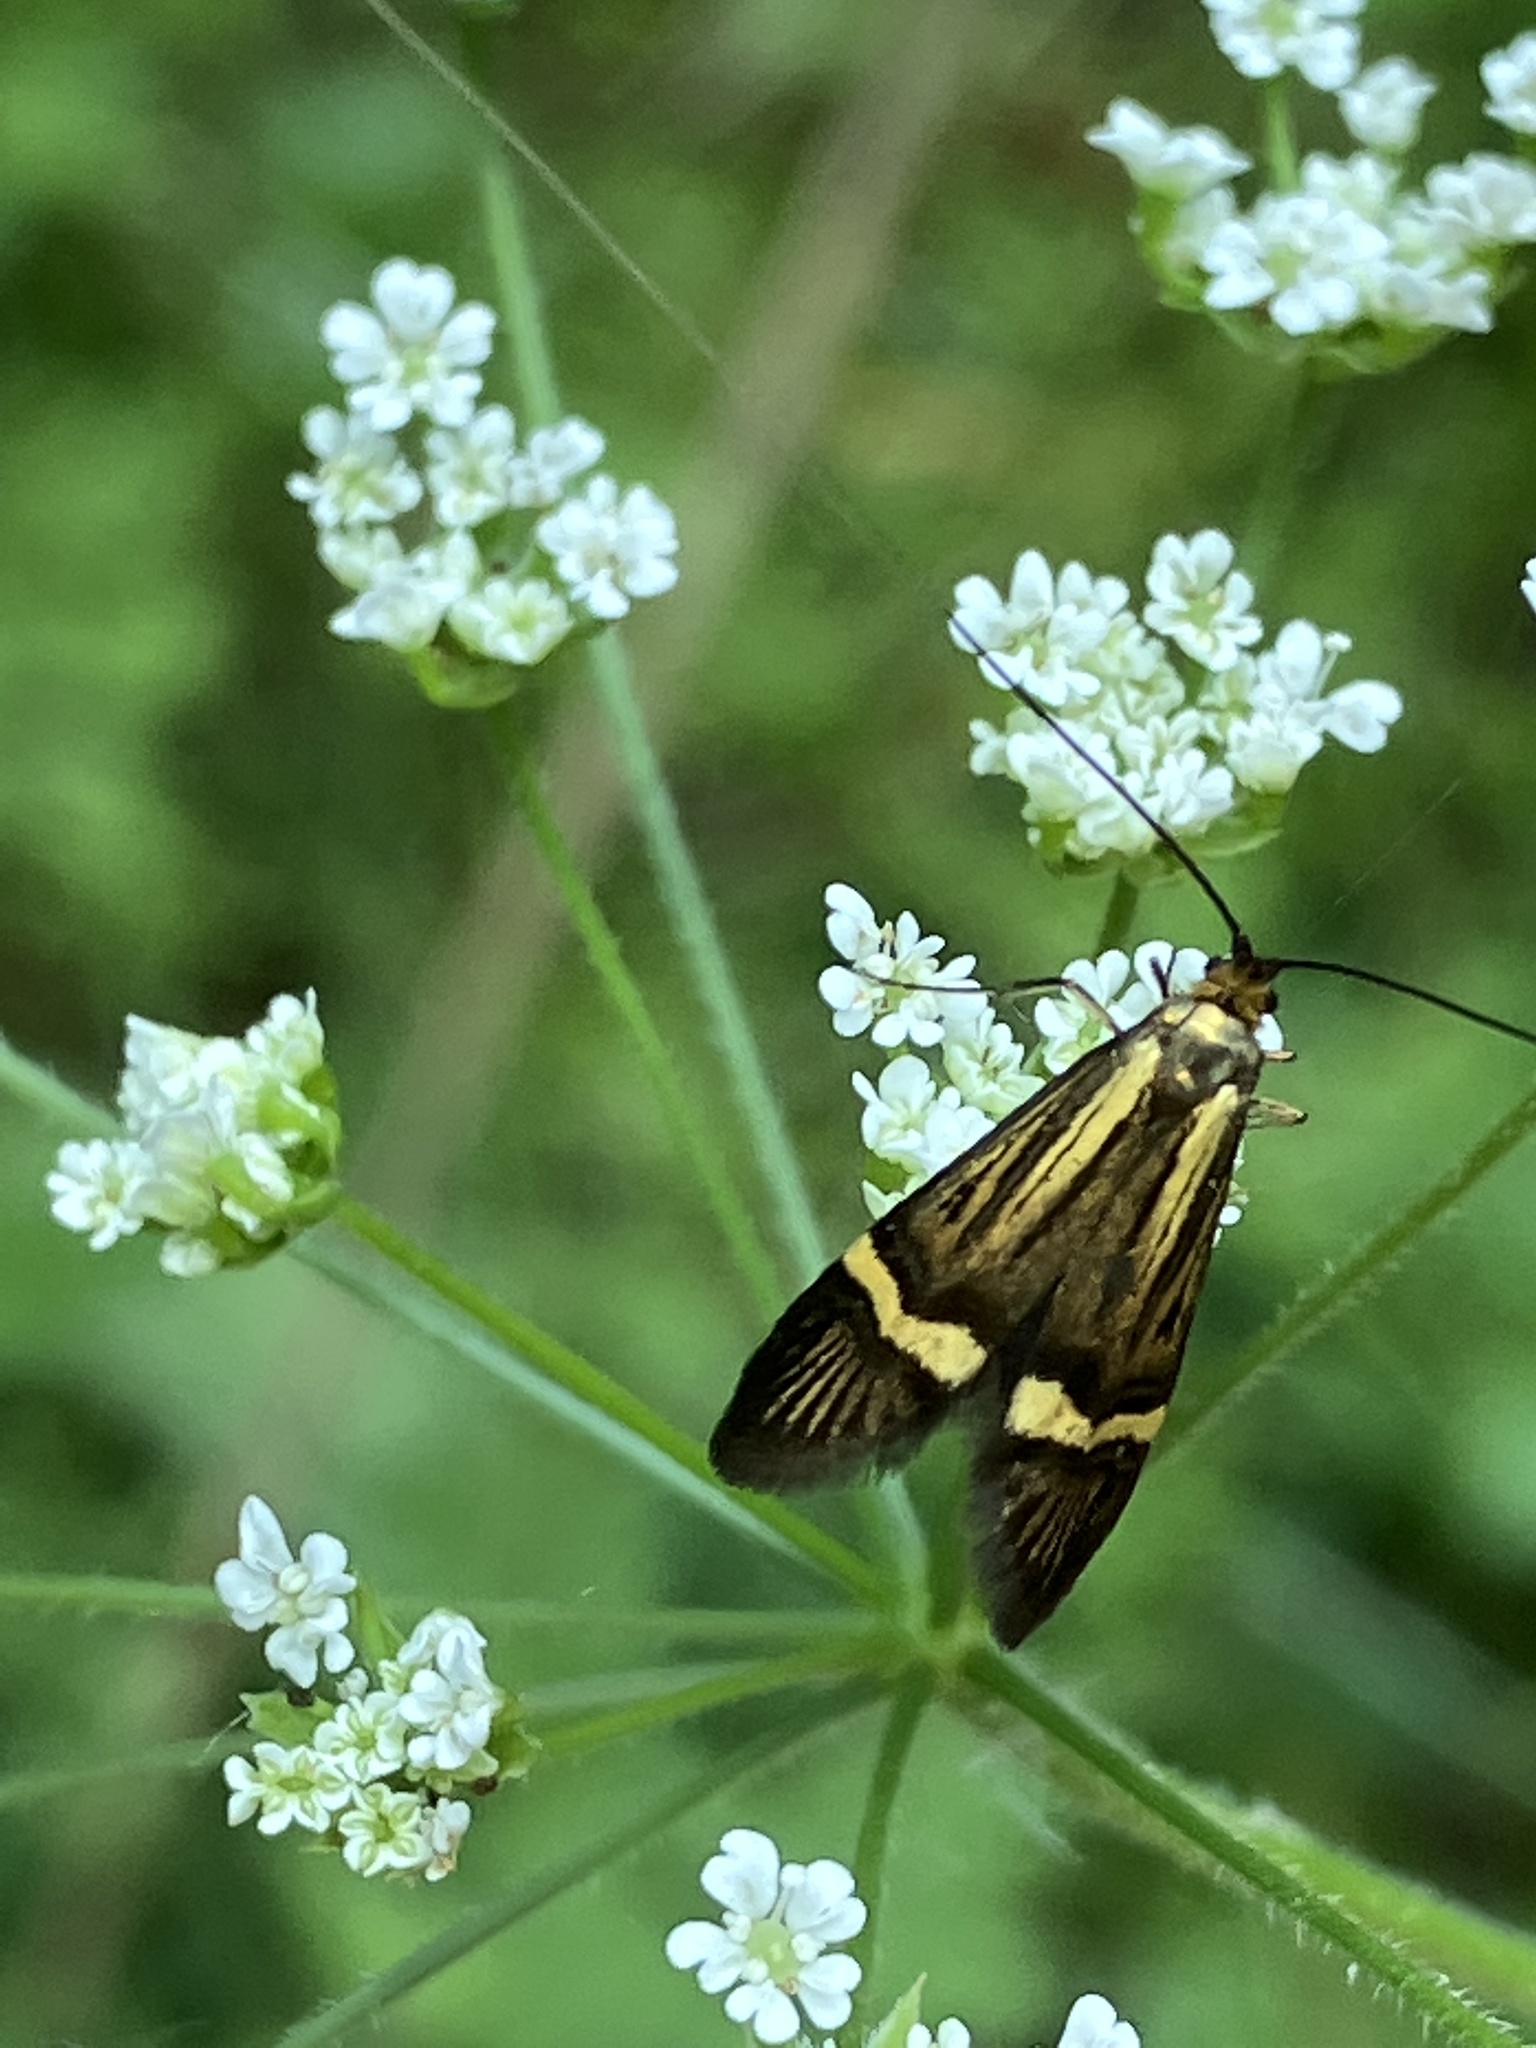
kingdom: Animalia
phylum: Arthropoda
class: Insecta
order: Lepidoptera
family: Adelidae
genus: Nemophora
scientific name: Nemophora degeerella
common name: Yellow-barred long-horn
